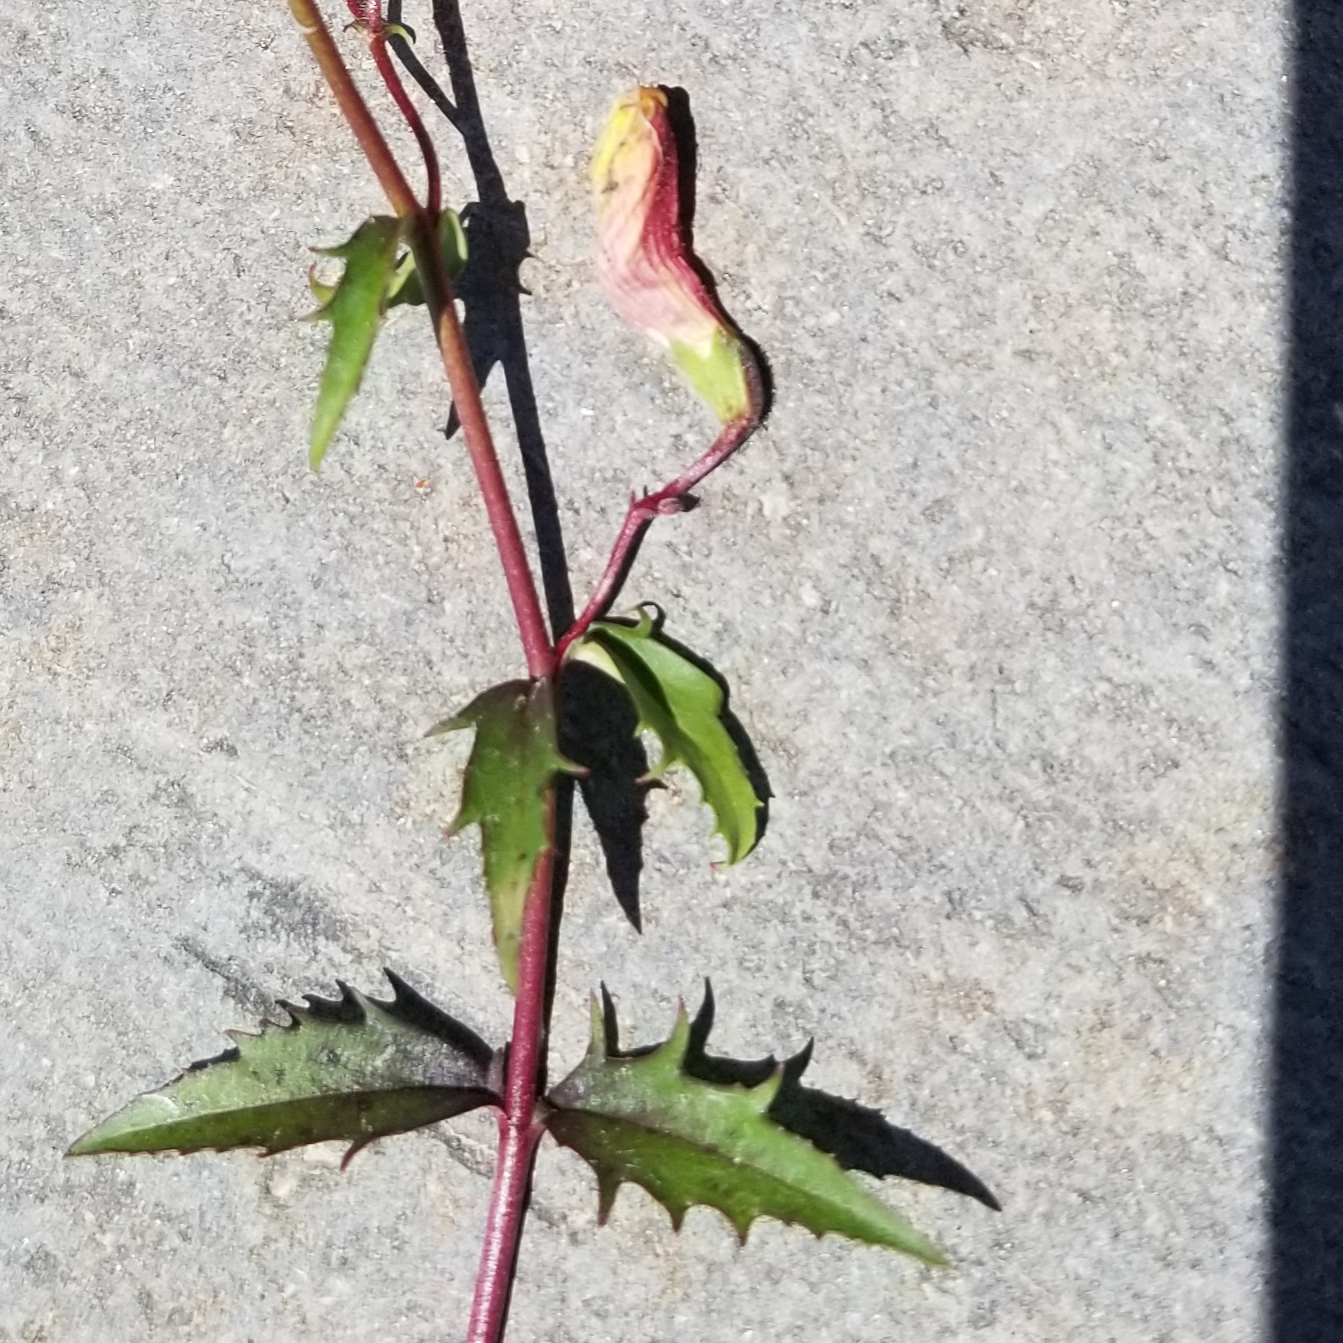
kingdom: Plantae
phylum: Tracheophyta
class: Magnoliopsida
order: Lamiales
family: Plantaginaceae
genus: Penstemon
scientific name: Penstemon richardsonii
